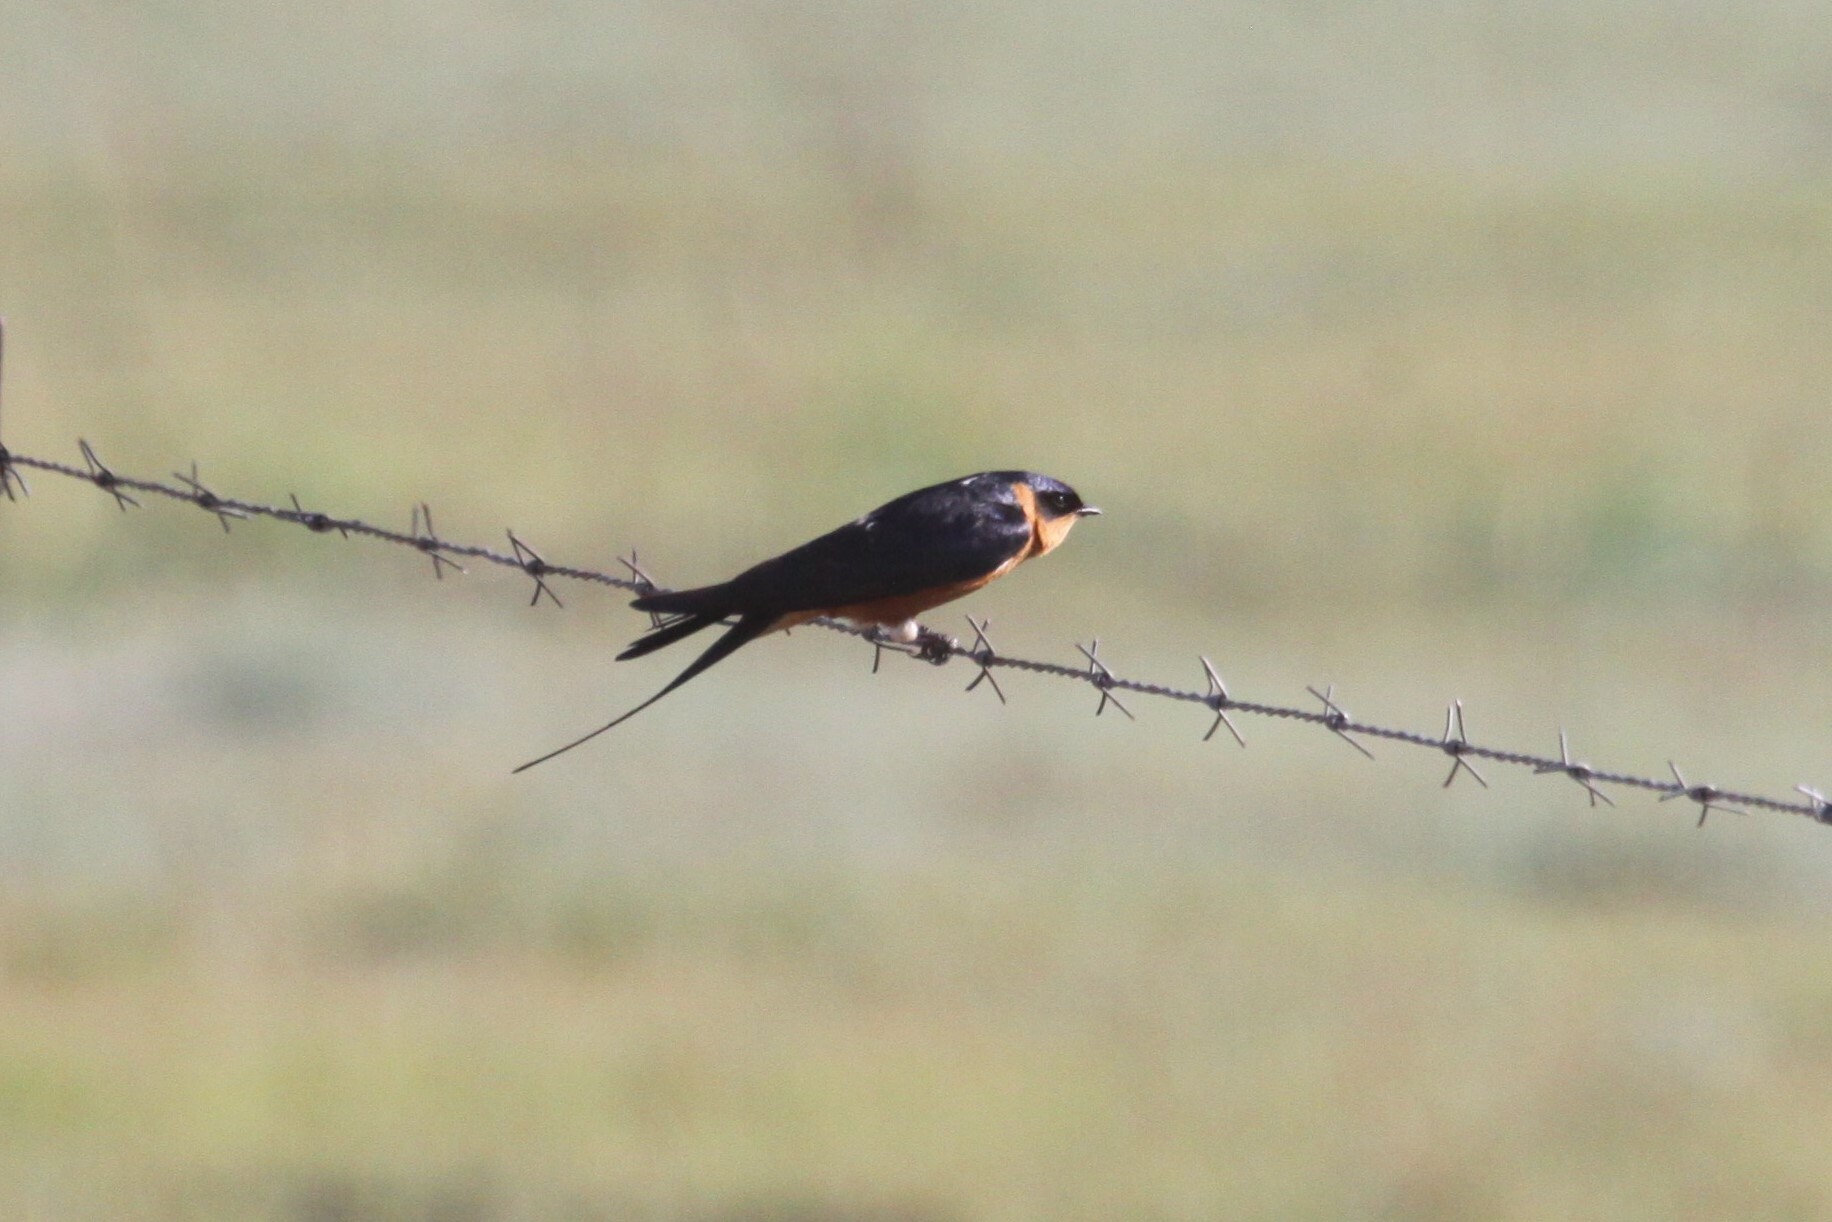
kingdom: Animalia
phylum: Chordata
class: Aves
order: Passeriformes
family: Hirundinidae
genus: Cecropis
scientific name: Cecropis semirufa
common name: Red-breasted swallow
